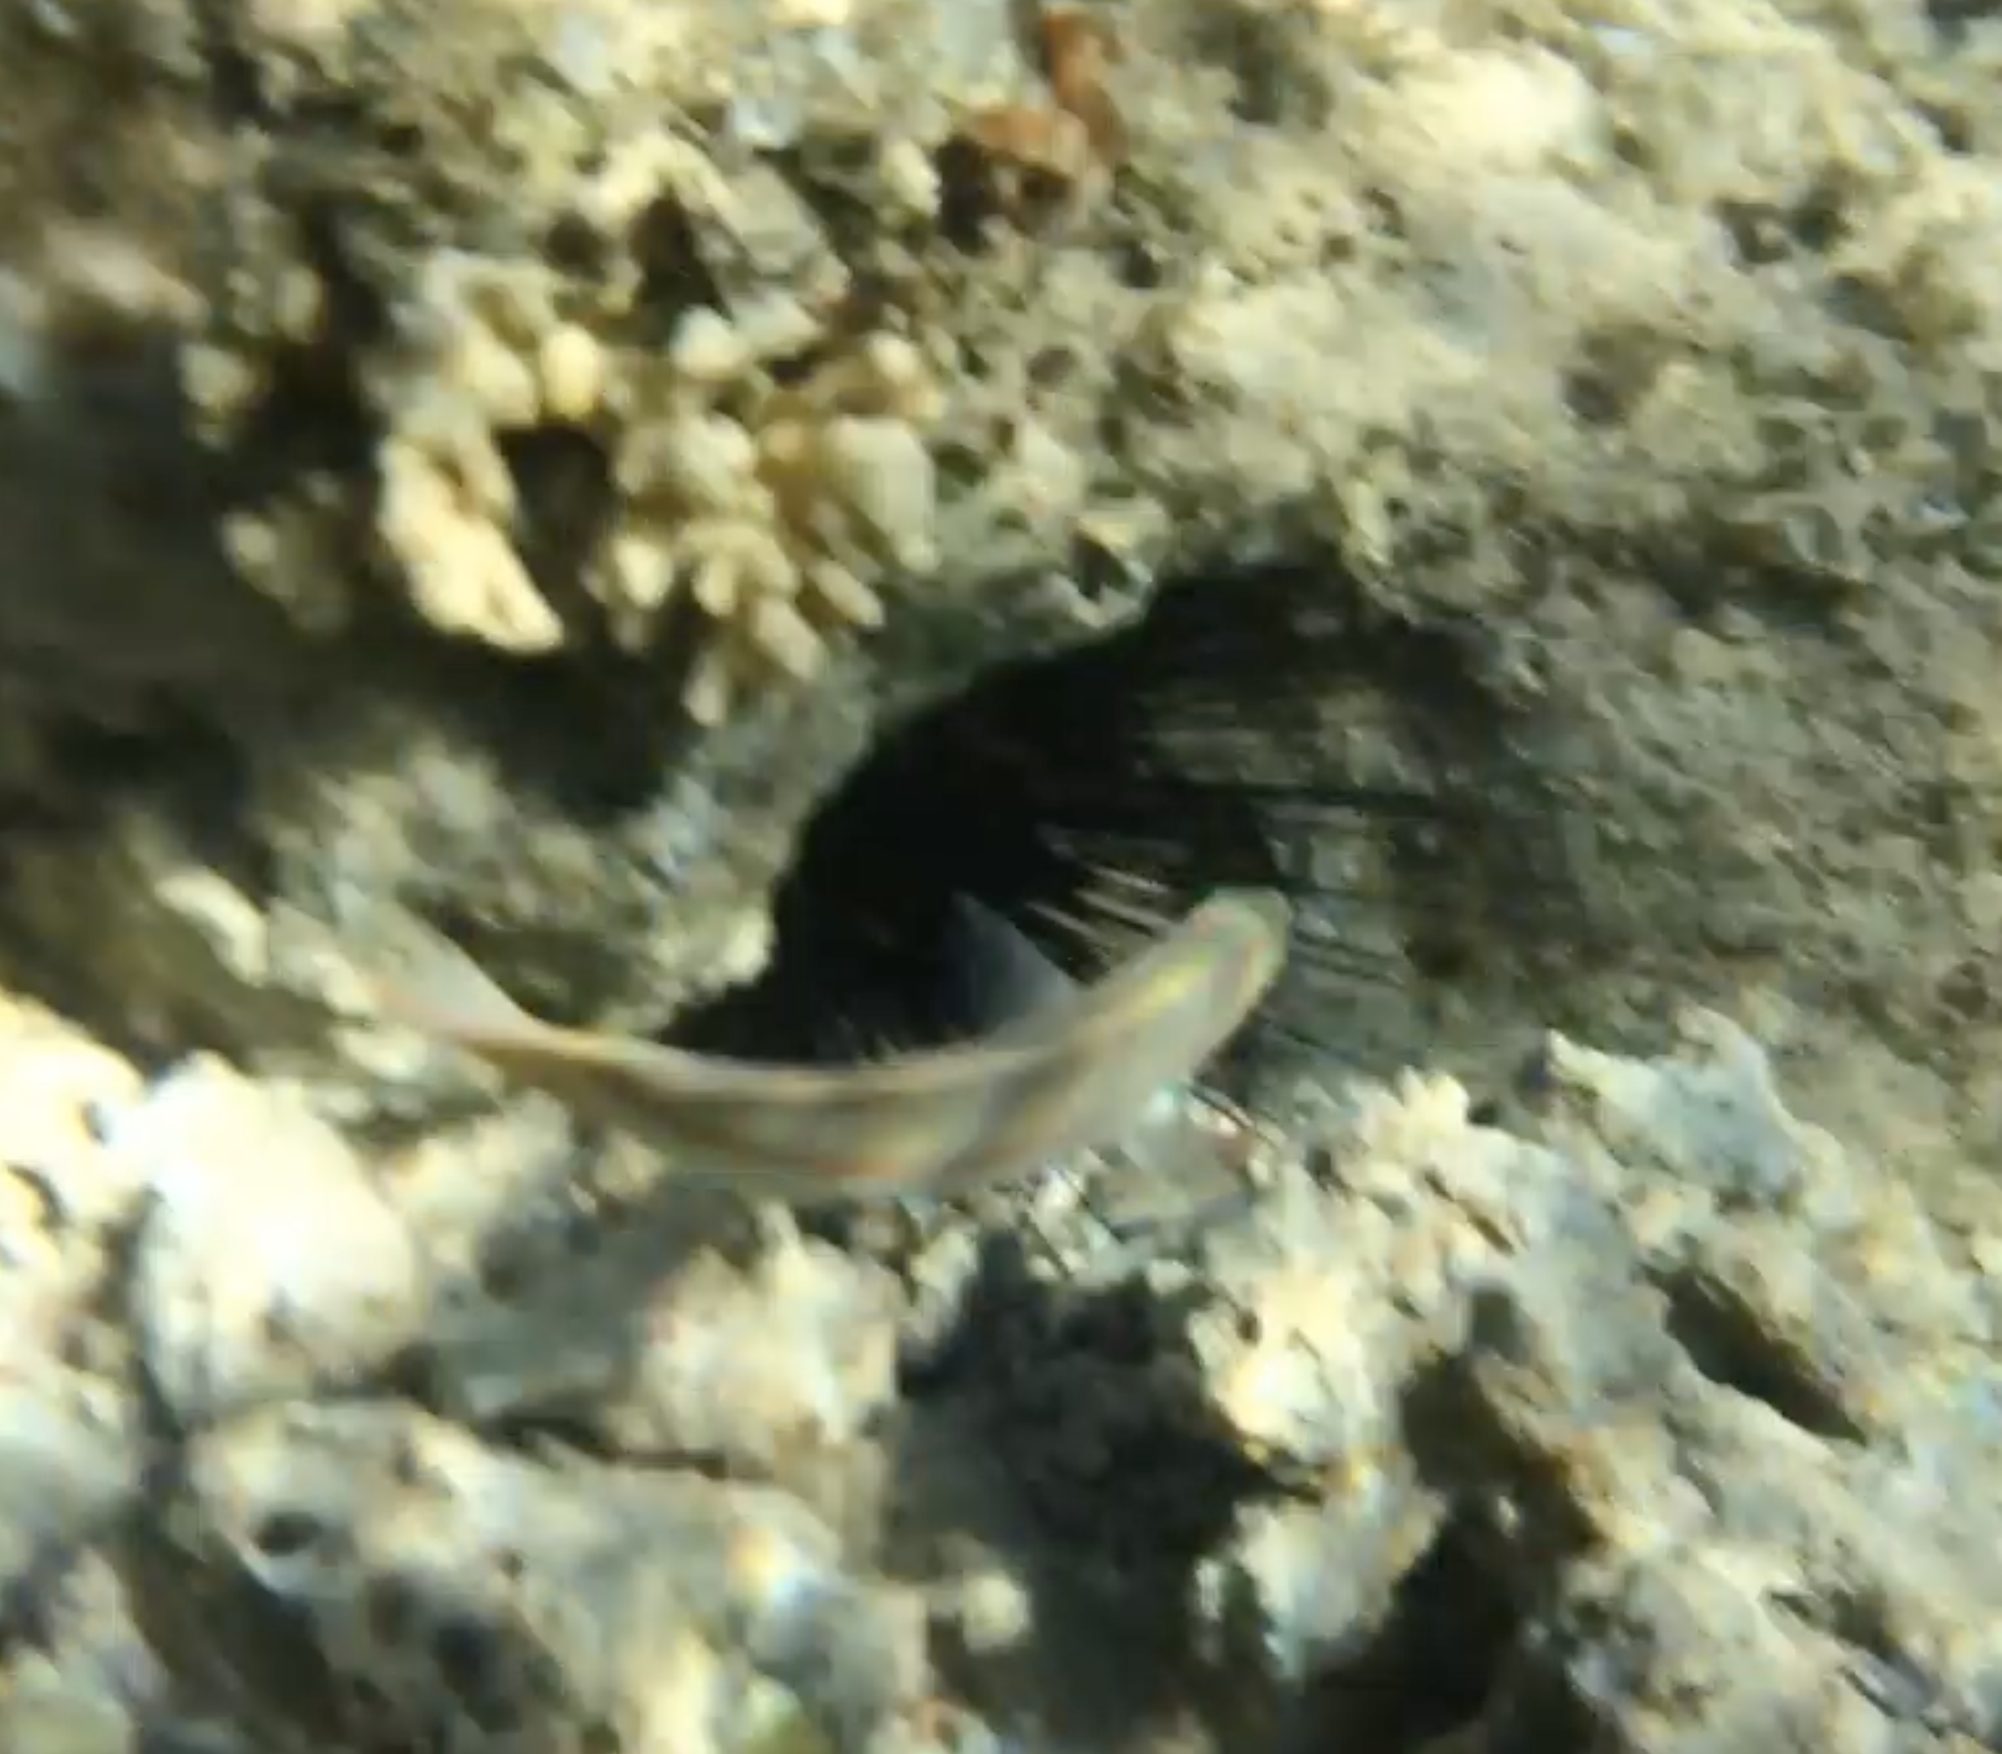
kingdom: Animalia
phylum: Chordata
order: Perciformes
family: Labridae
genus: Thalassoma
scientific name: Thalassoma rueppellii
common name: Klunzinger's wrasse
